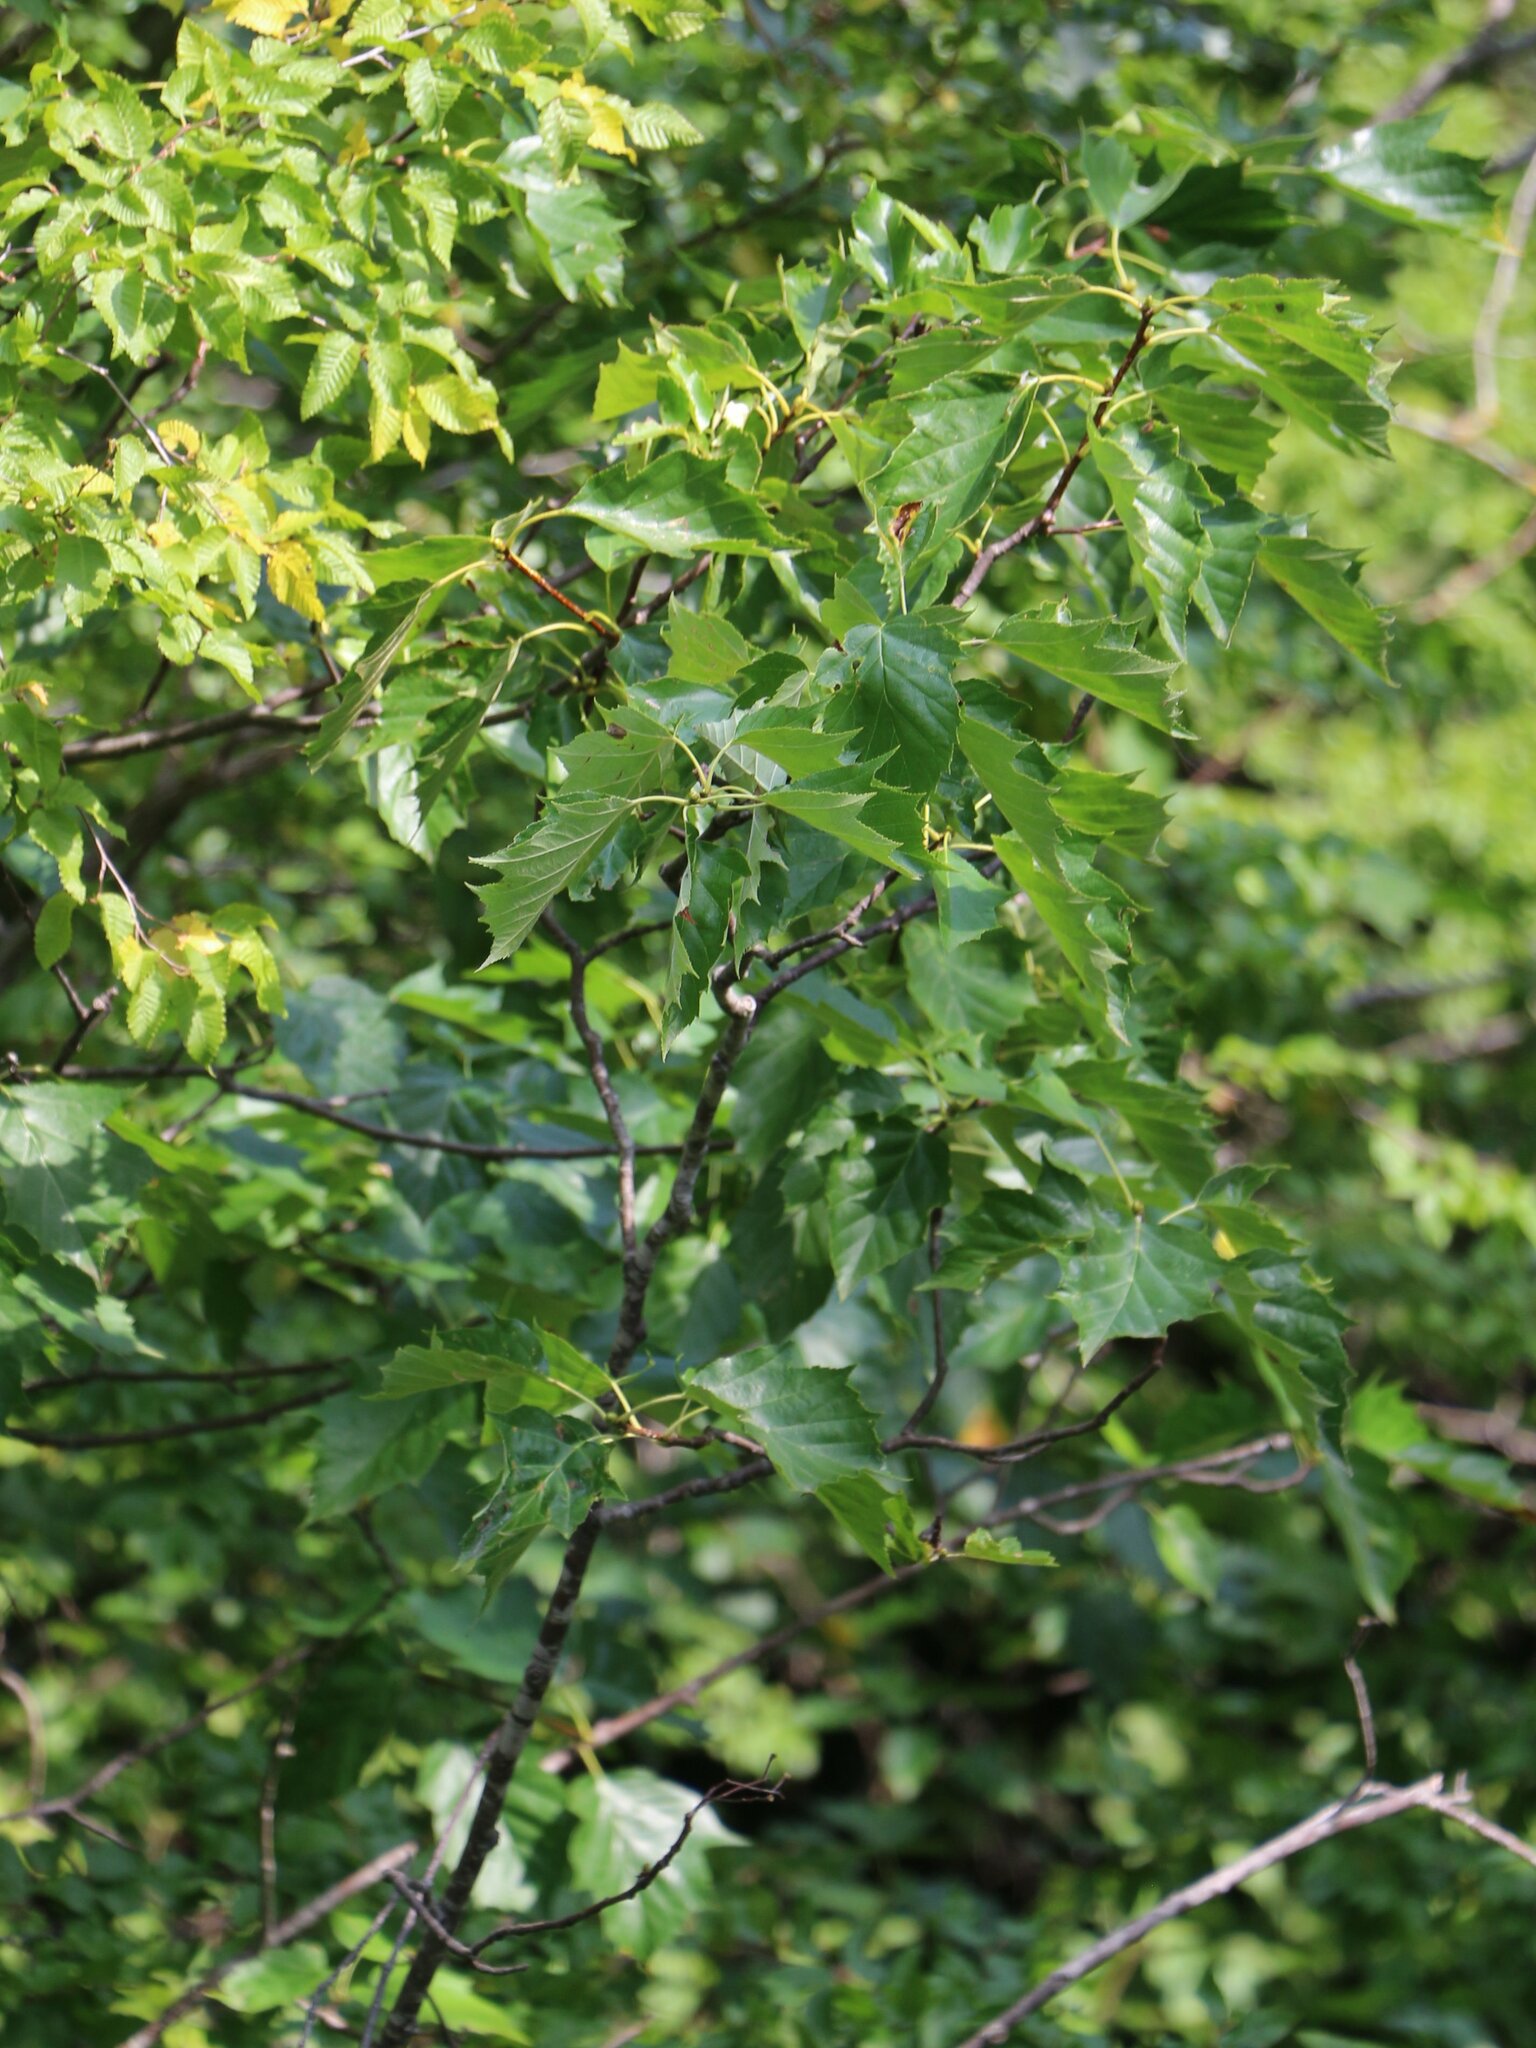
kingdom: Plantae
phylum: Tracheophyta
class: Magnoliopsida
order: Rosales
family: Rosaceae
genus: Torminalis
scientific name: Torminalis glaberrima
